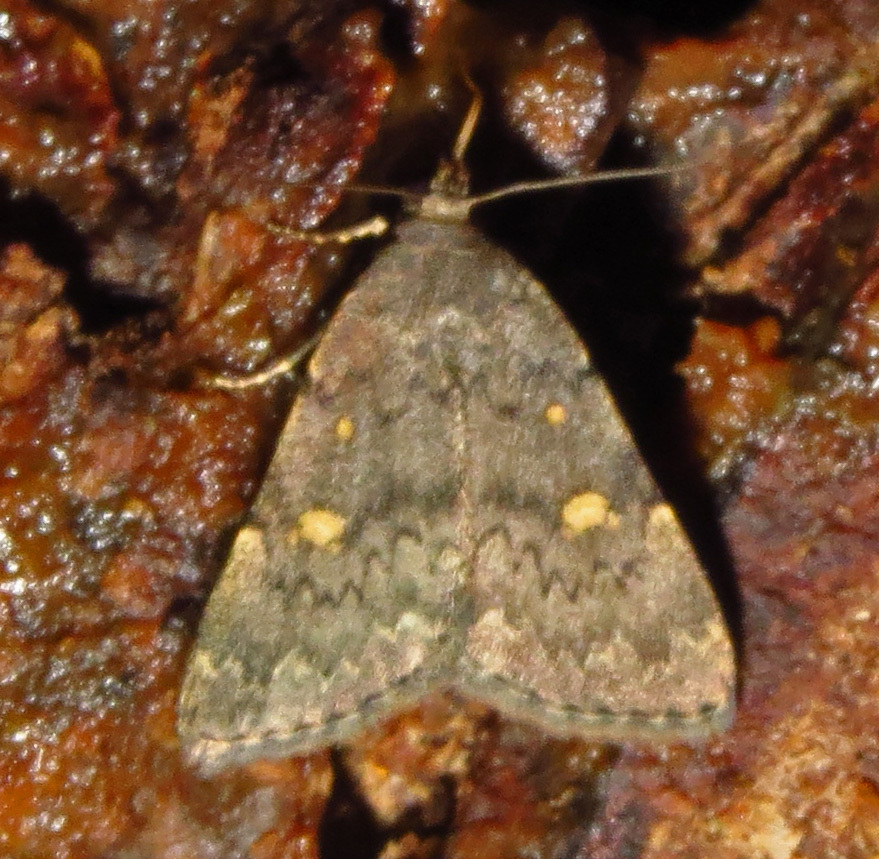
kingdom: Animalia
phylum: Arthropoda
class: Insecta
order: Lepidoptera
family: Erebidae
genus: Idia
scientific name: Idia aemula
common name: Common idia moth
